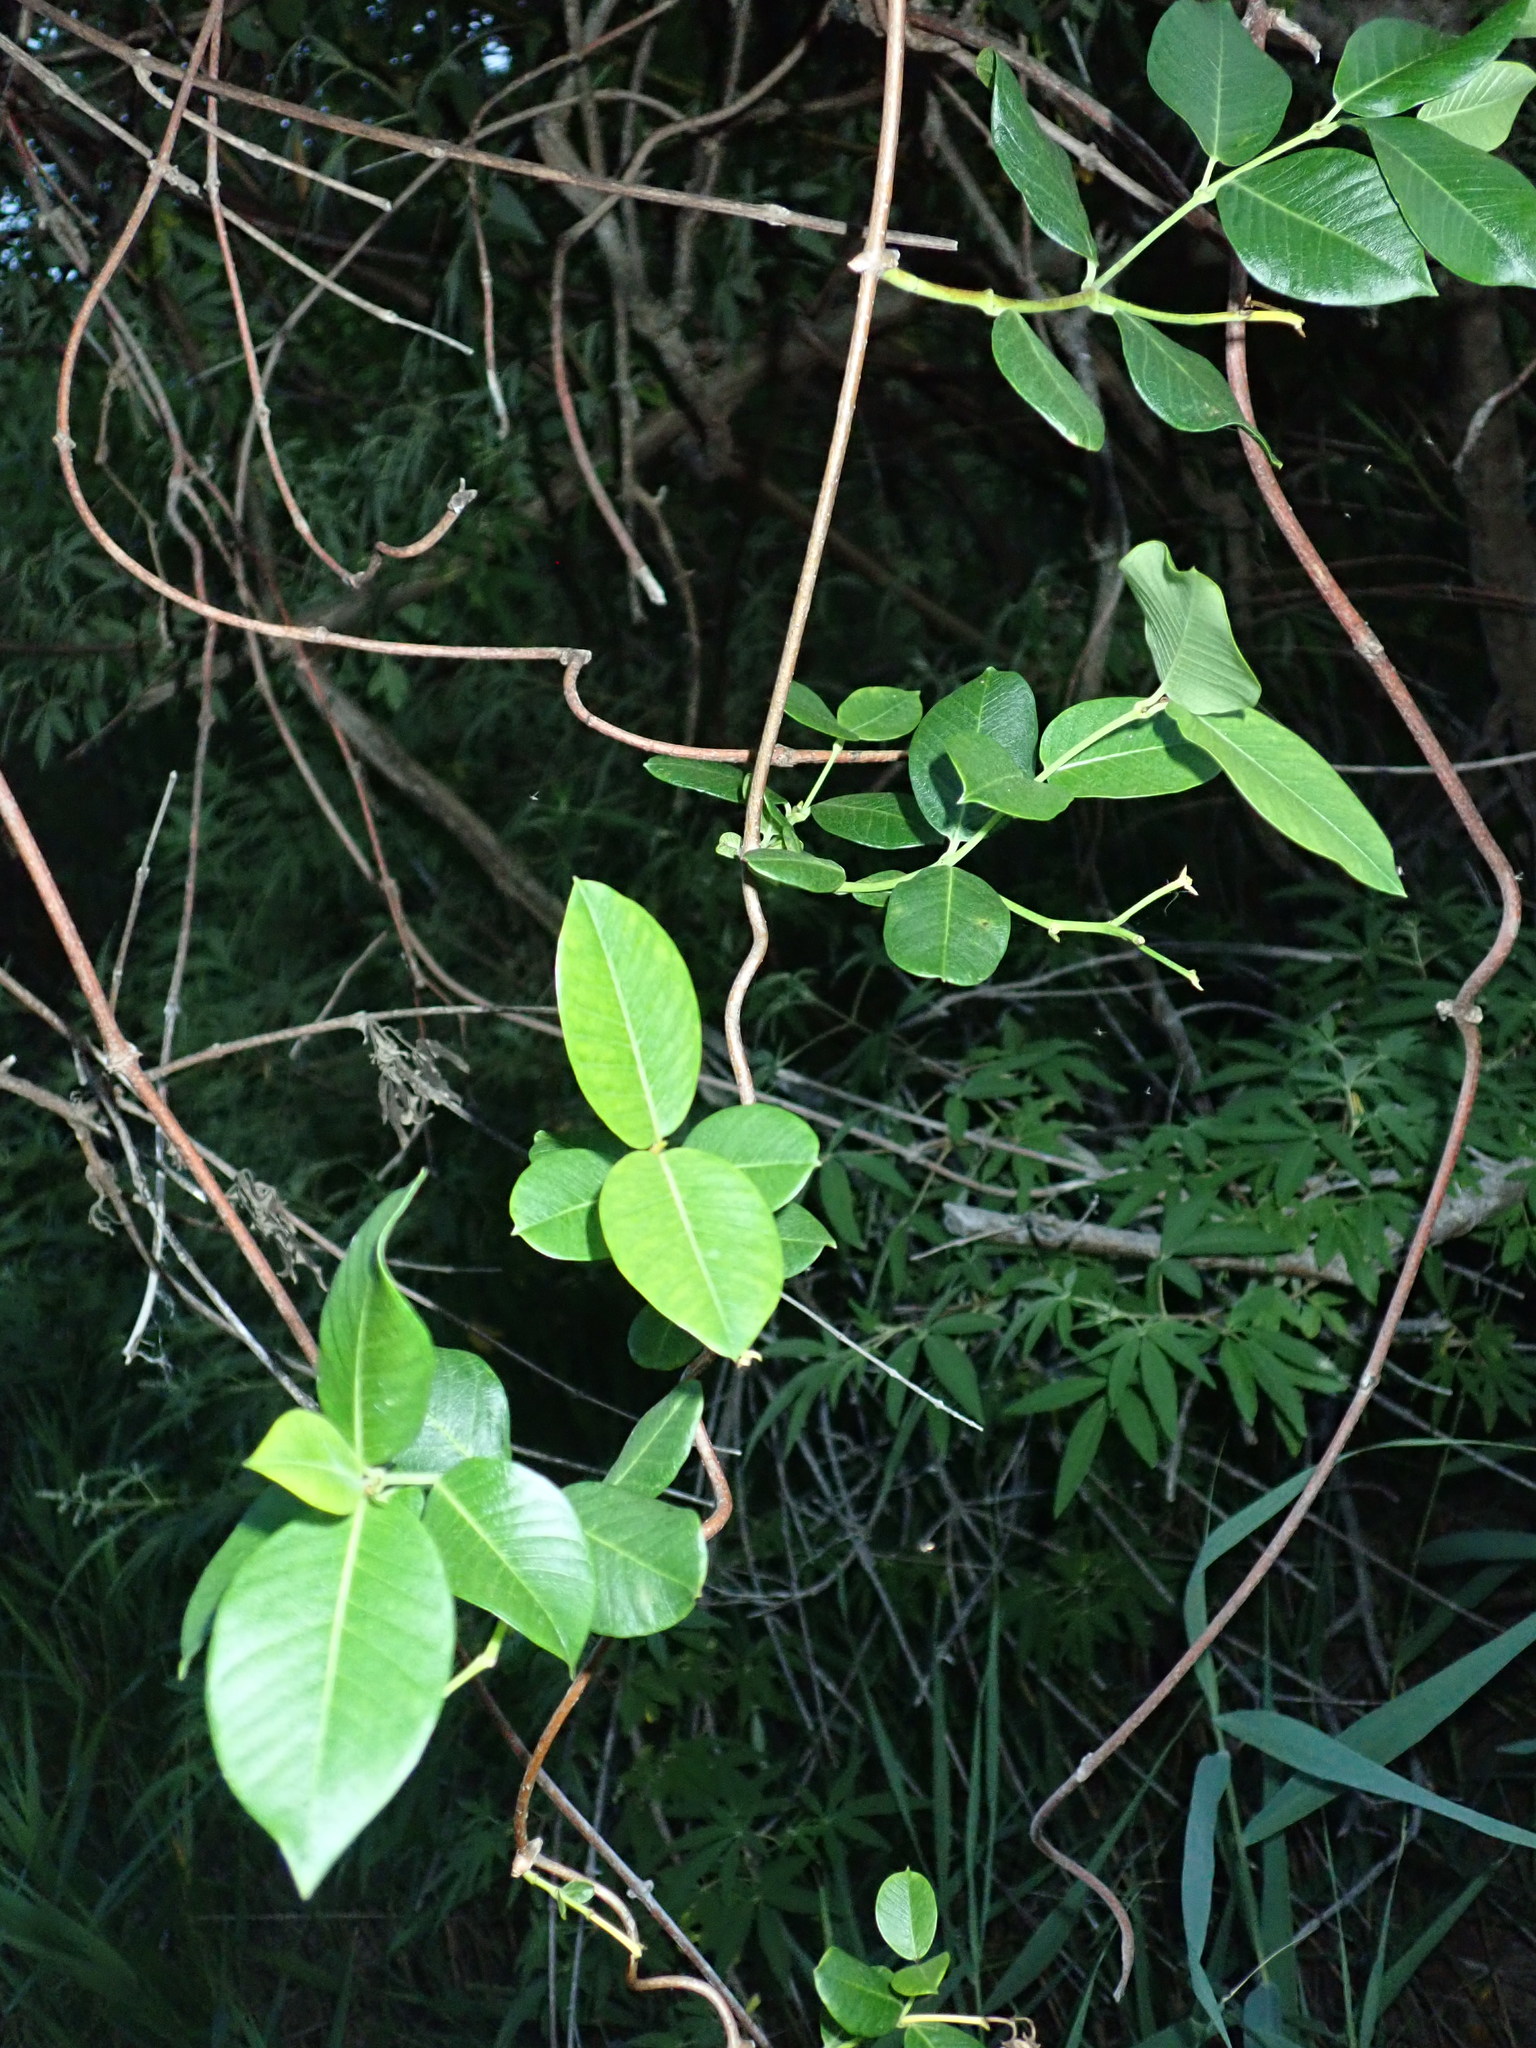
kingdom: Plantae
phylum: Tracheophyta
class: Magnoliopsida
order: Gentianales
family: Apocynaceae
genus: Periploca
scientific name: Periploca graeca
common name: Silkvine
